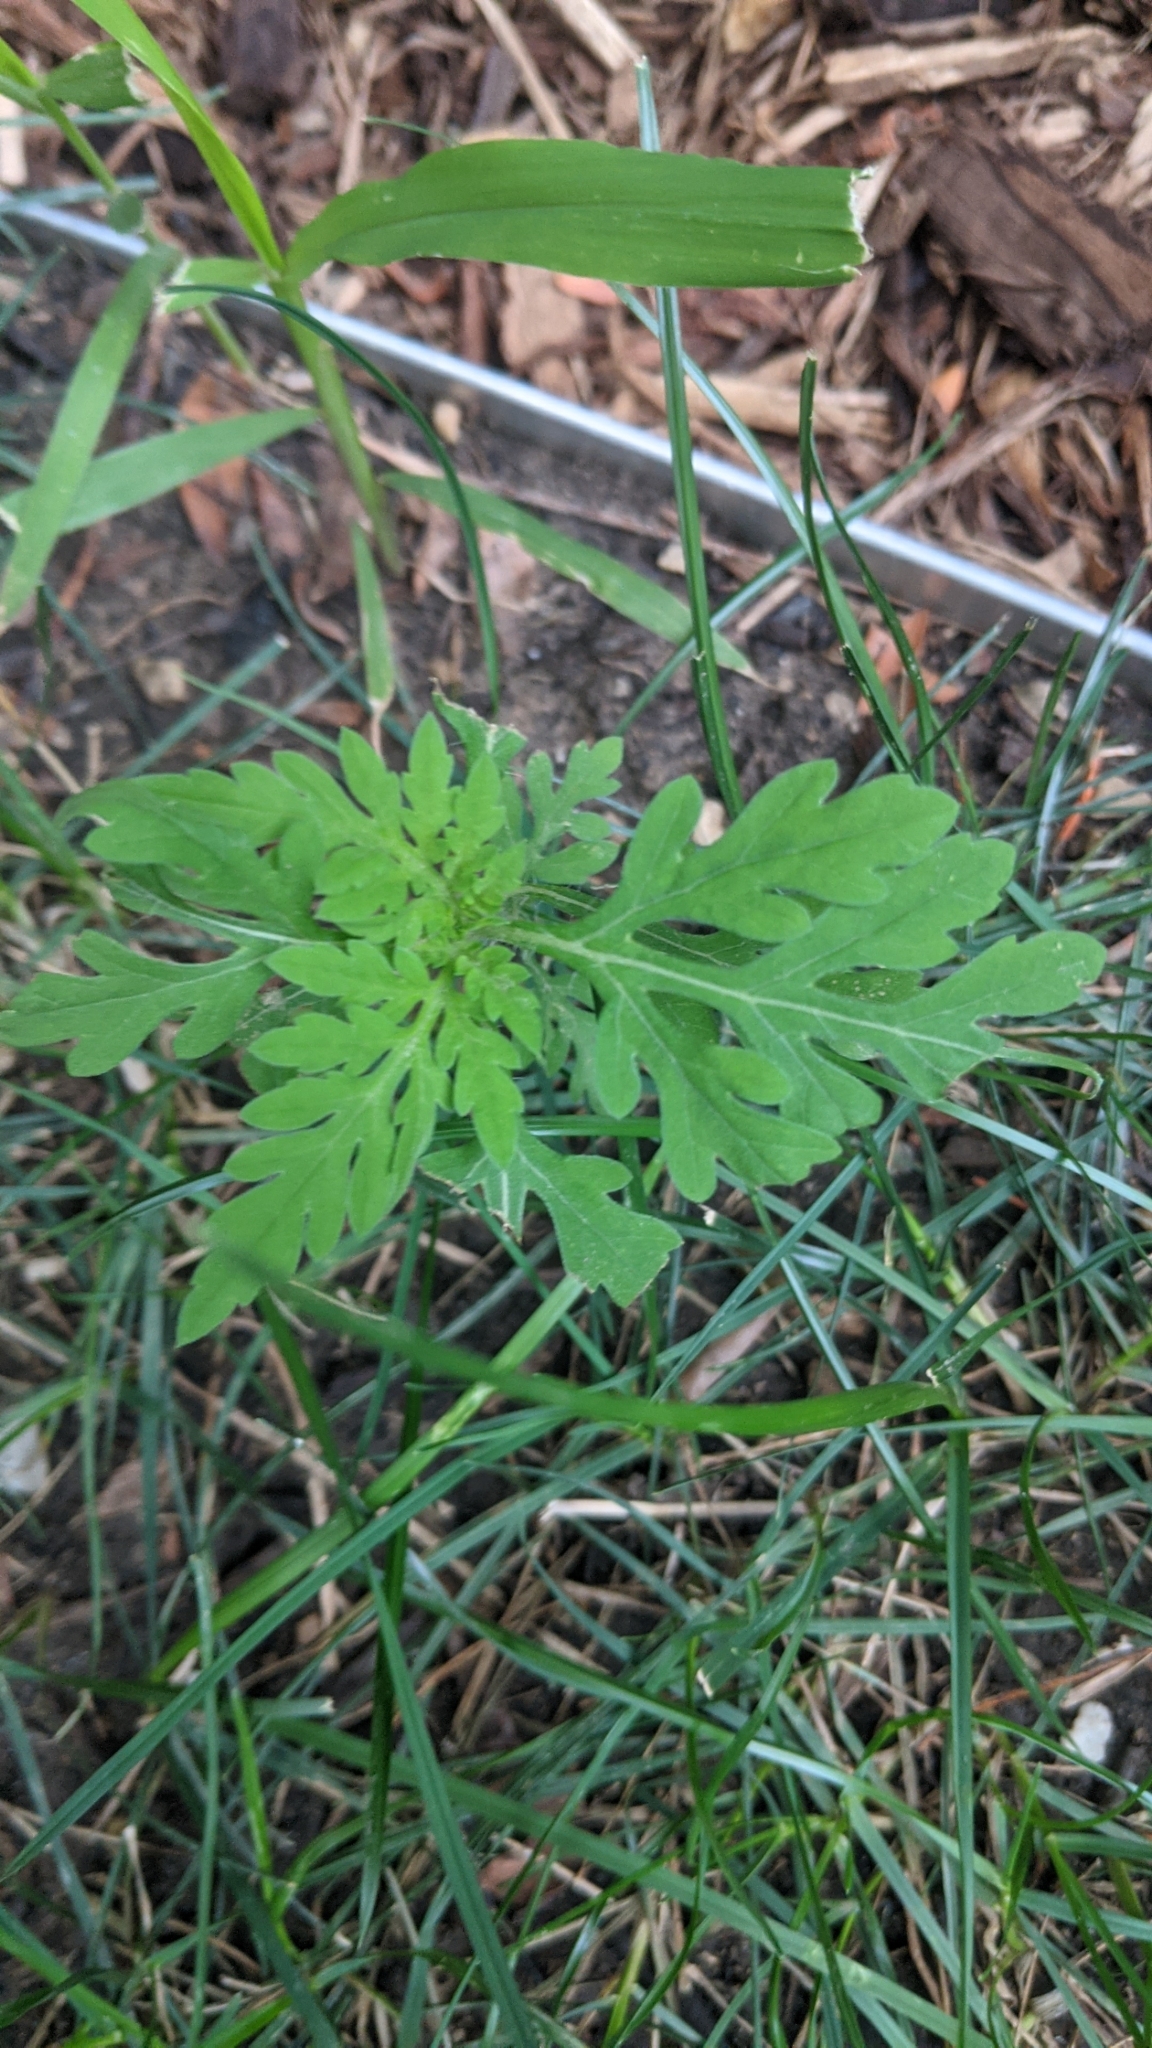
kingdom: Plantae
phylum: Tracheophyta
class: Magnoliopsida
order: Asterales
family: Asteraceae
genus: Ambrosia
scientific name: Ambrosia artemisiifolia
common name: Annual ragweed
